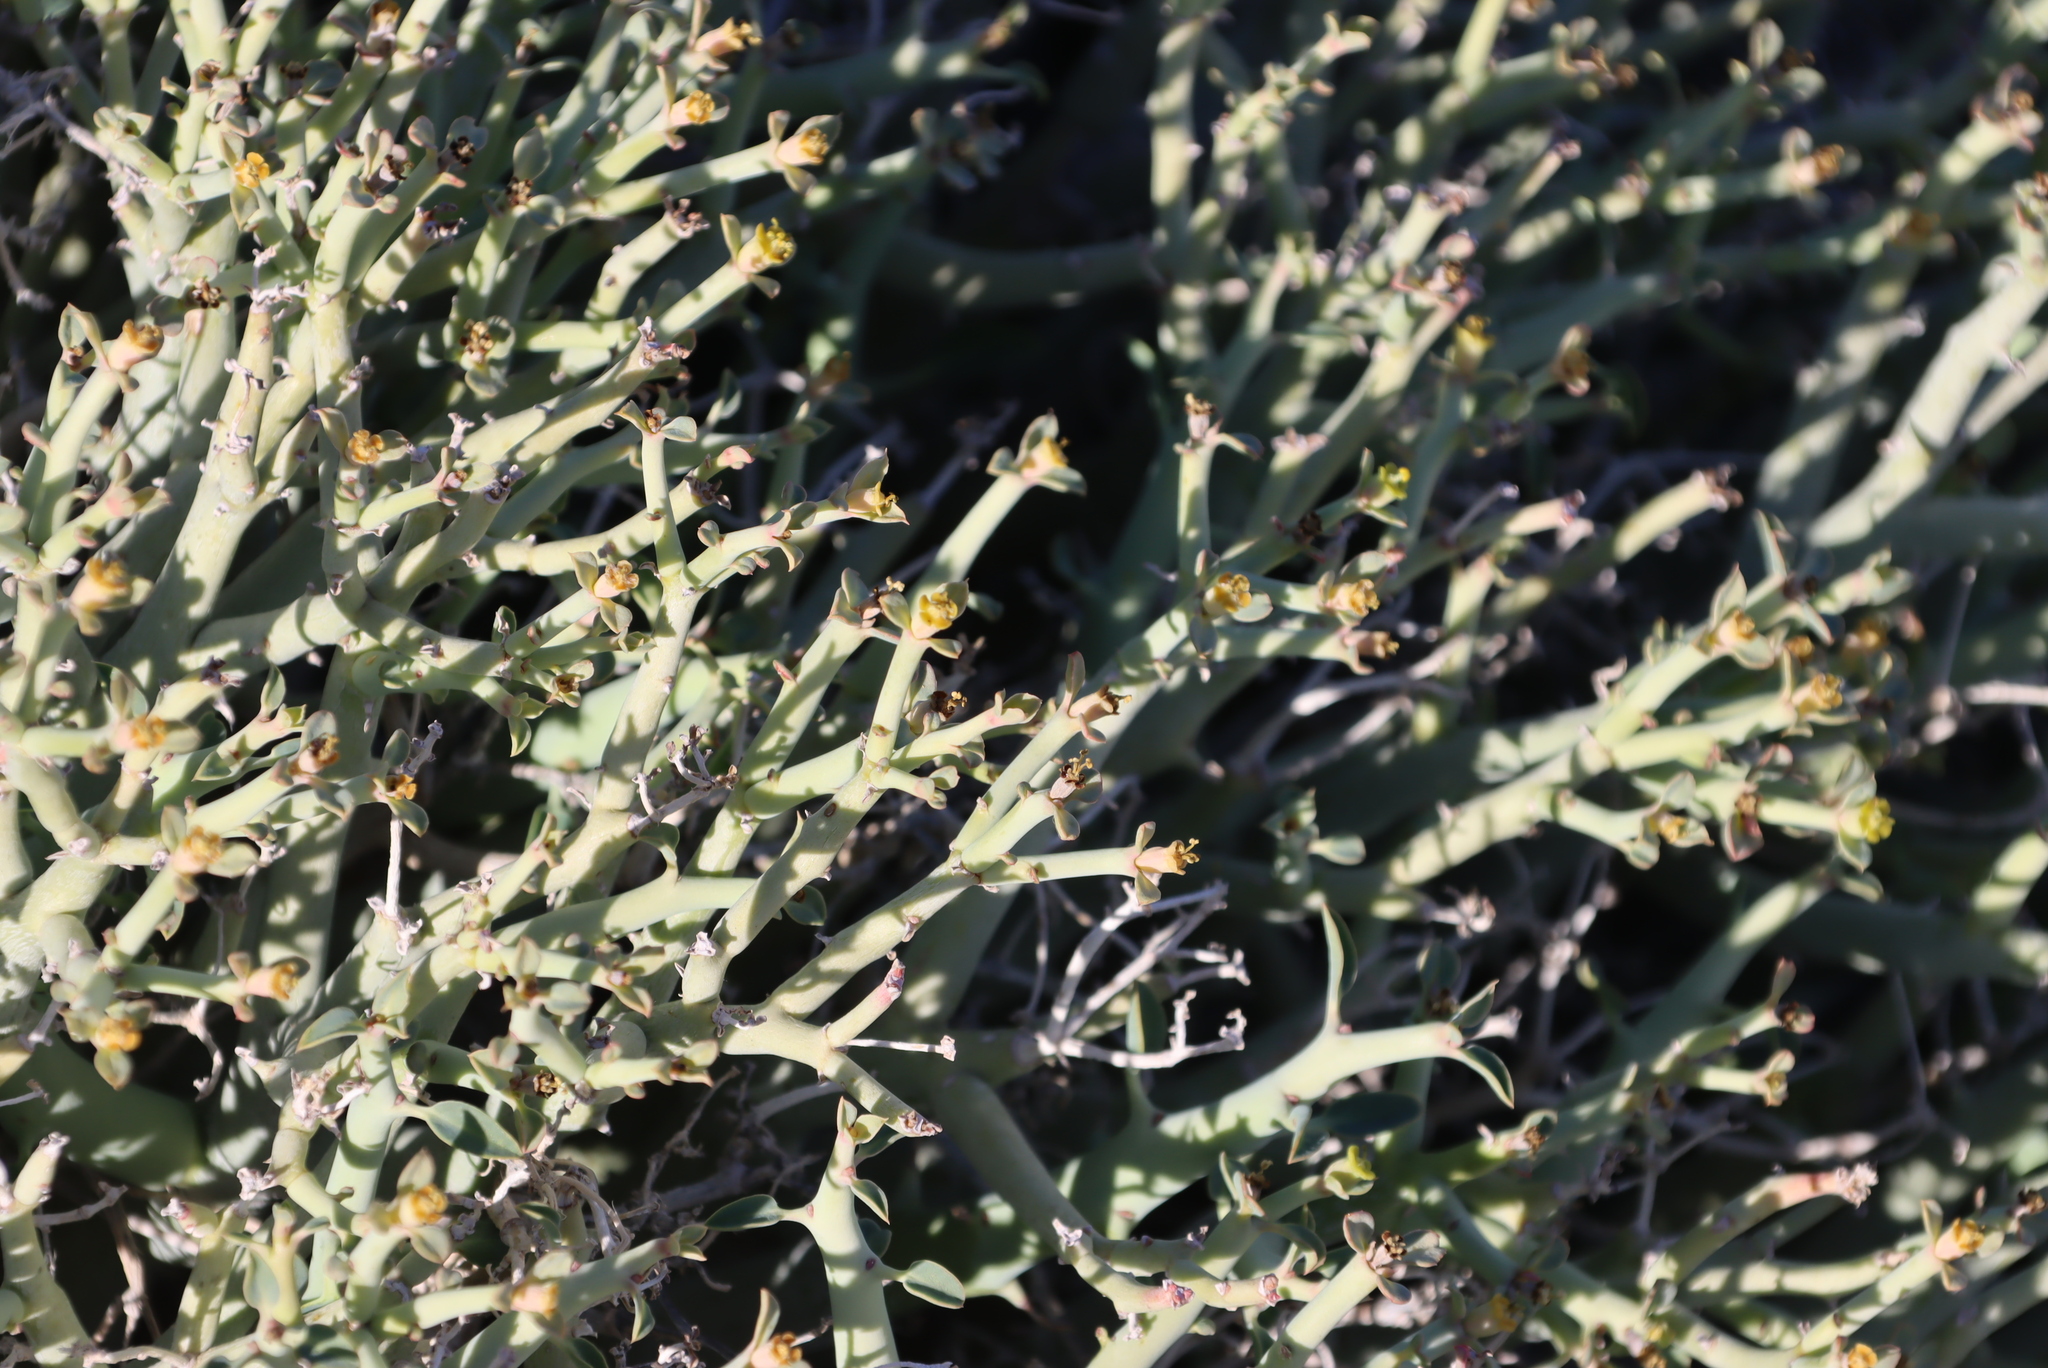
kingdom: Plantae
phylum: Tracheophyta
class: Magnoliopsida
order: Malpighiales
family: Euphorbiaceae
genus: Euphorbia
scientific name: Euphorbia gariepina
